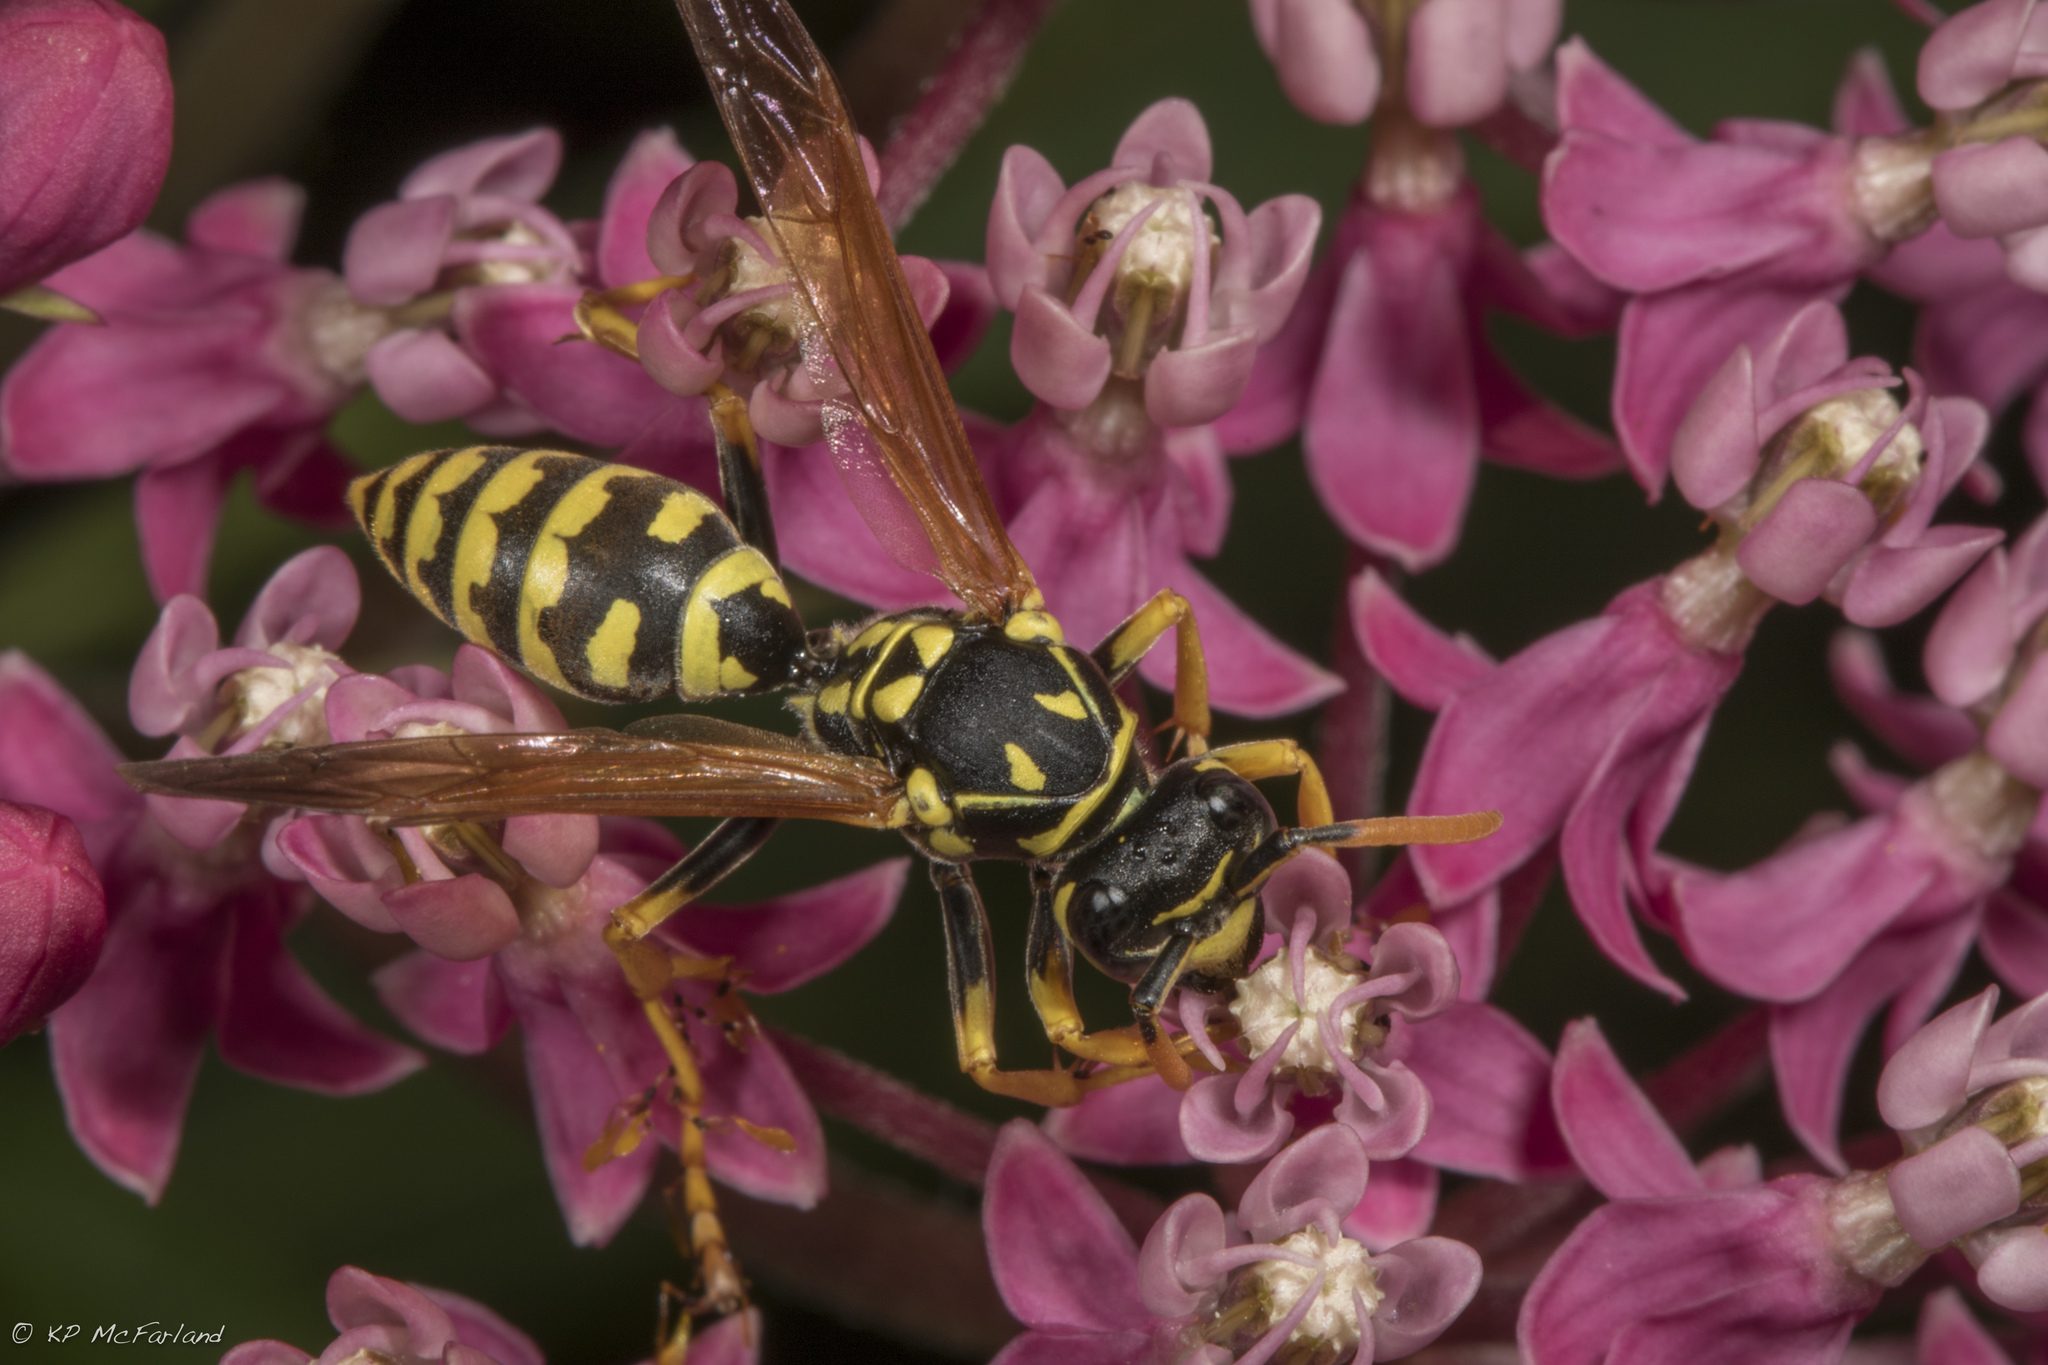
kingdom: Animalia
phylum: Arthropoda
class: Insecta
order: Hymenoptera
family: Eumenidae
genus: Polistes
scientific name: Polistes dominula
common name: Paper wasp
